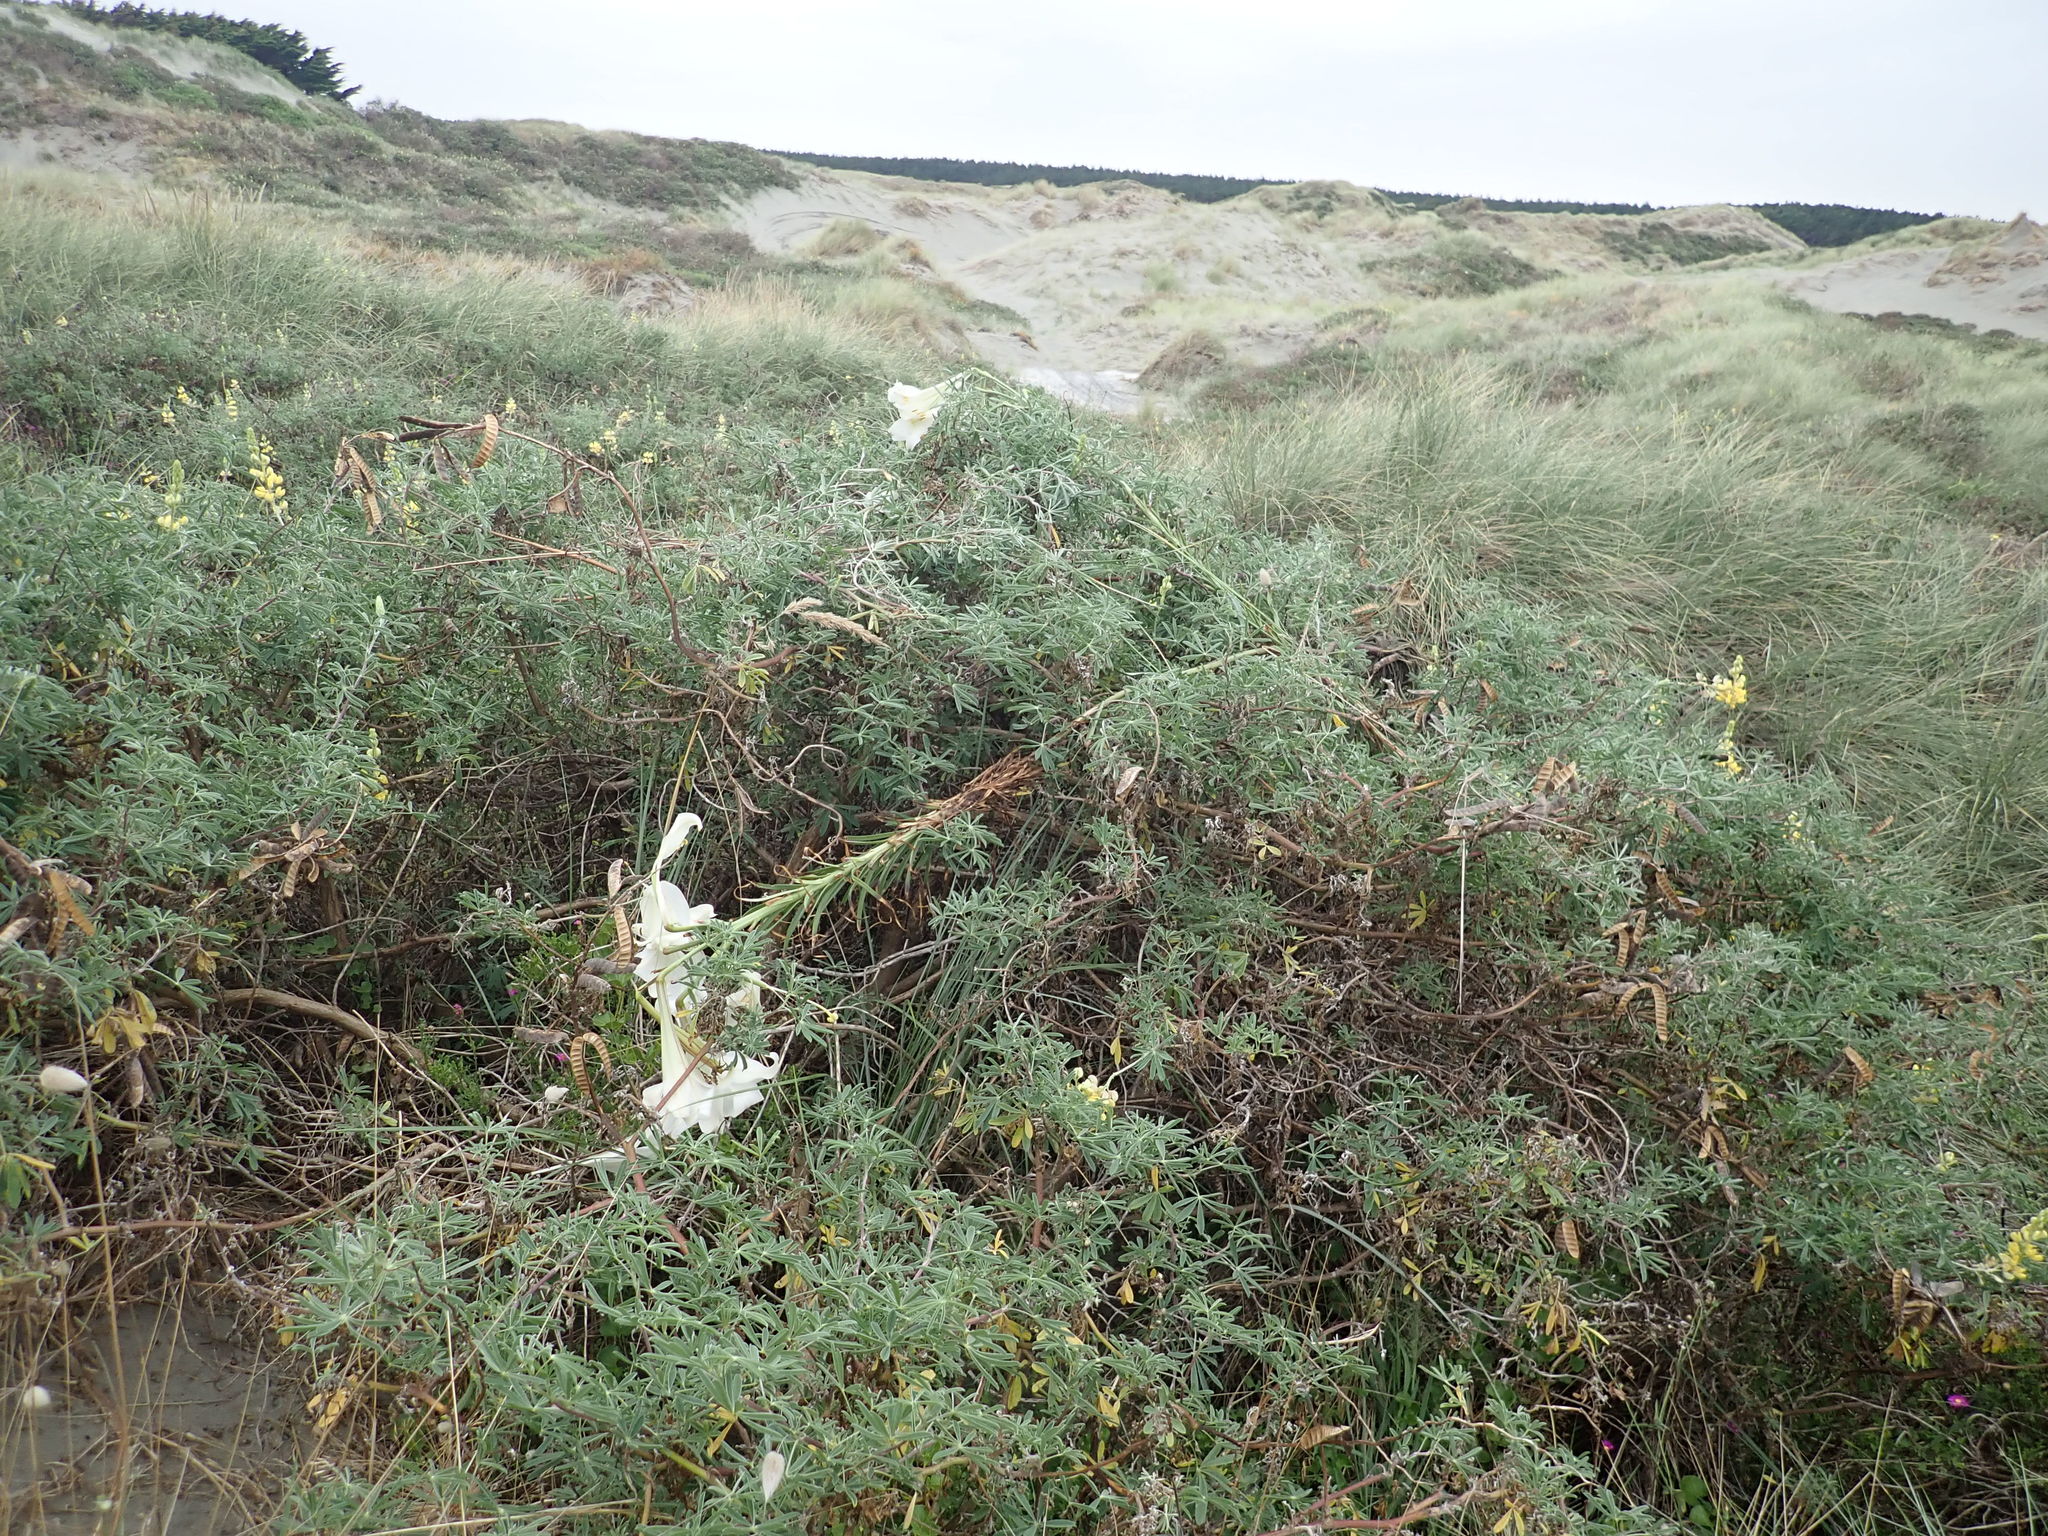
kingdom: Plantae
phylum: Tracheophyta
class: Magnoliopsida
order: Fabales
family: Fabaceae
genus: Lupinus
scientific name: Lupinus arboreus
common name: Yellow bush lupine
